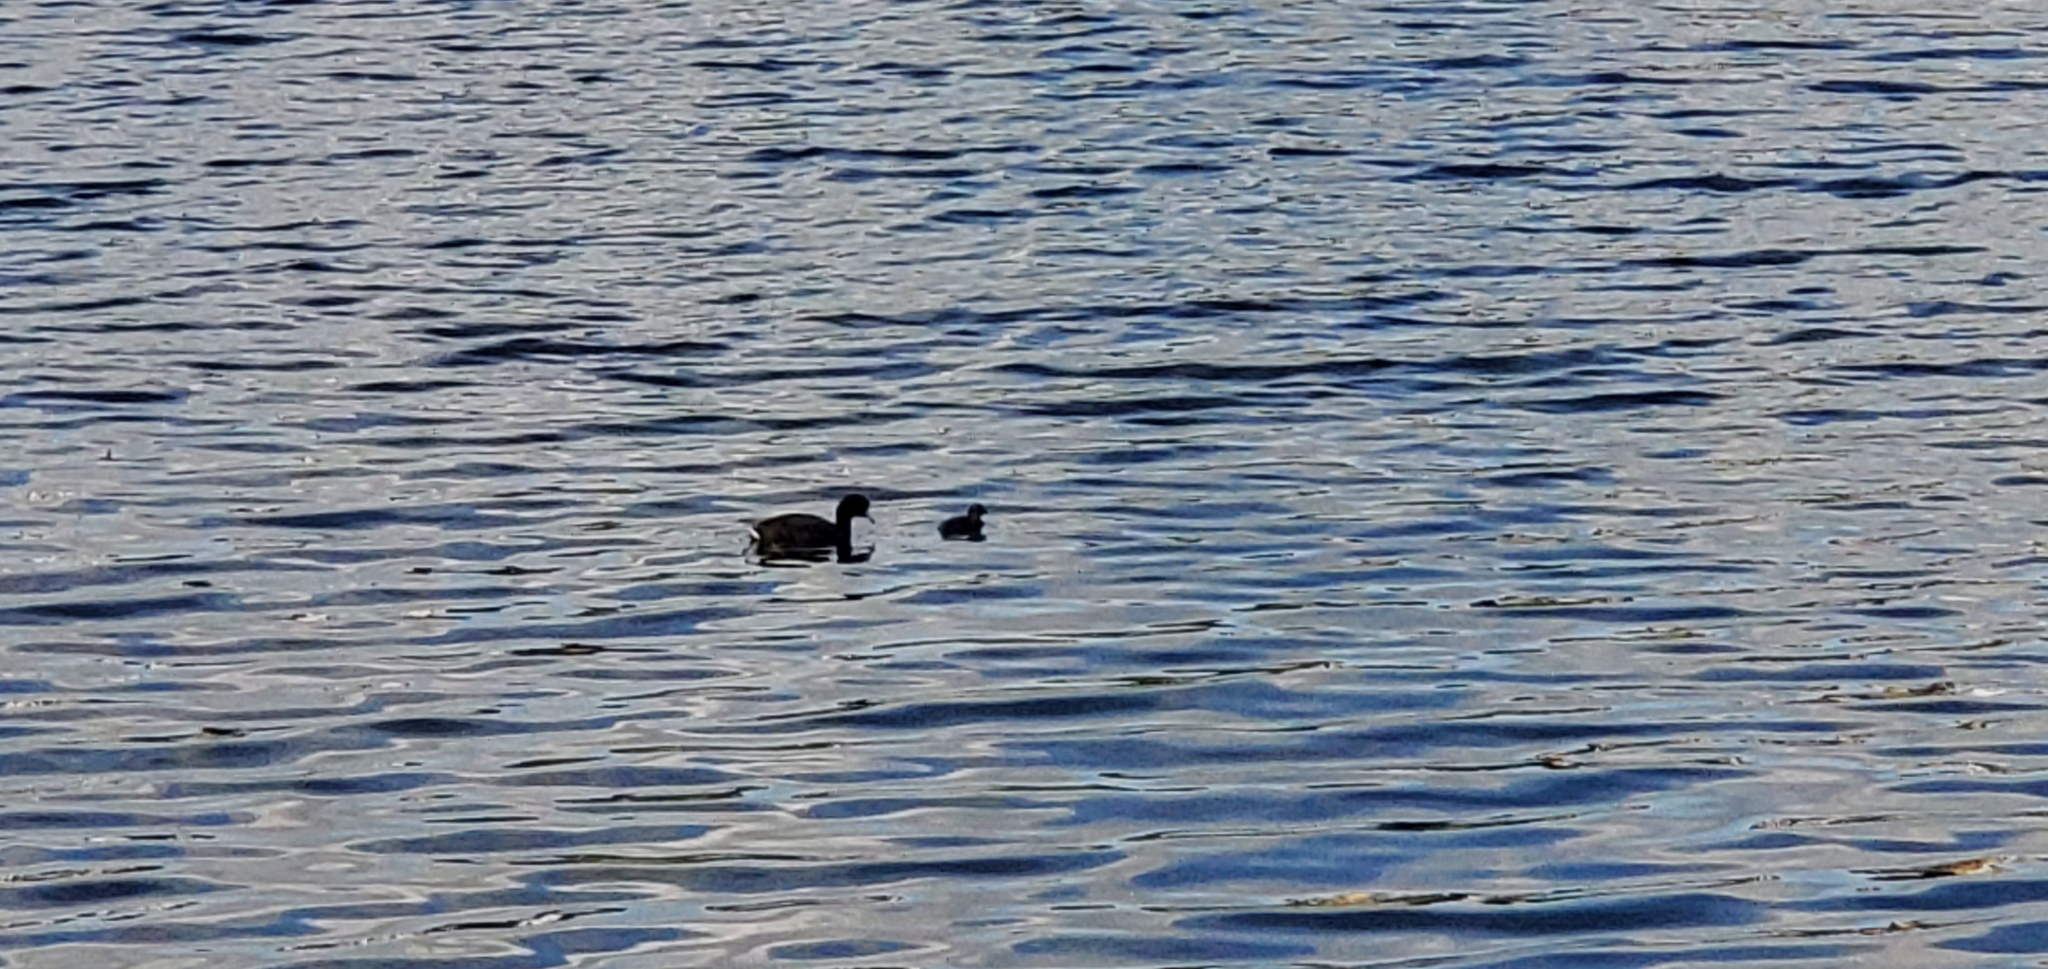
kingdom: Animalia
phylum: Chordata
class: Aves
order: Gruiformes
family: Rallidae
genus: Fulica
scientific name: Fulica americana
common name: American coot
